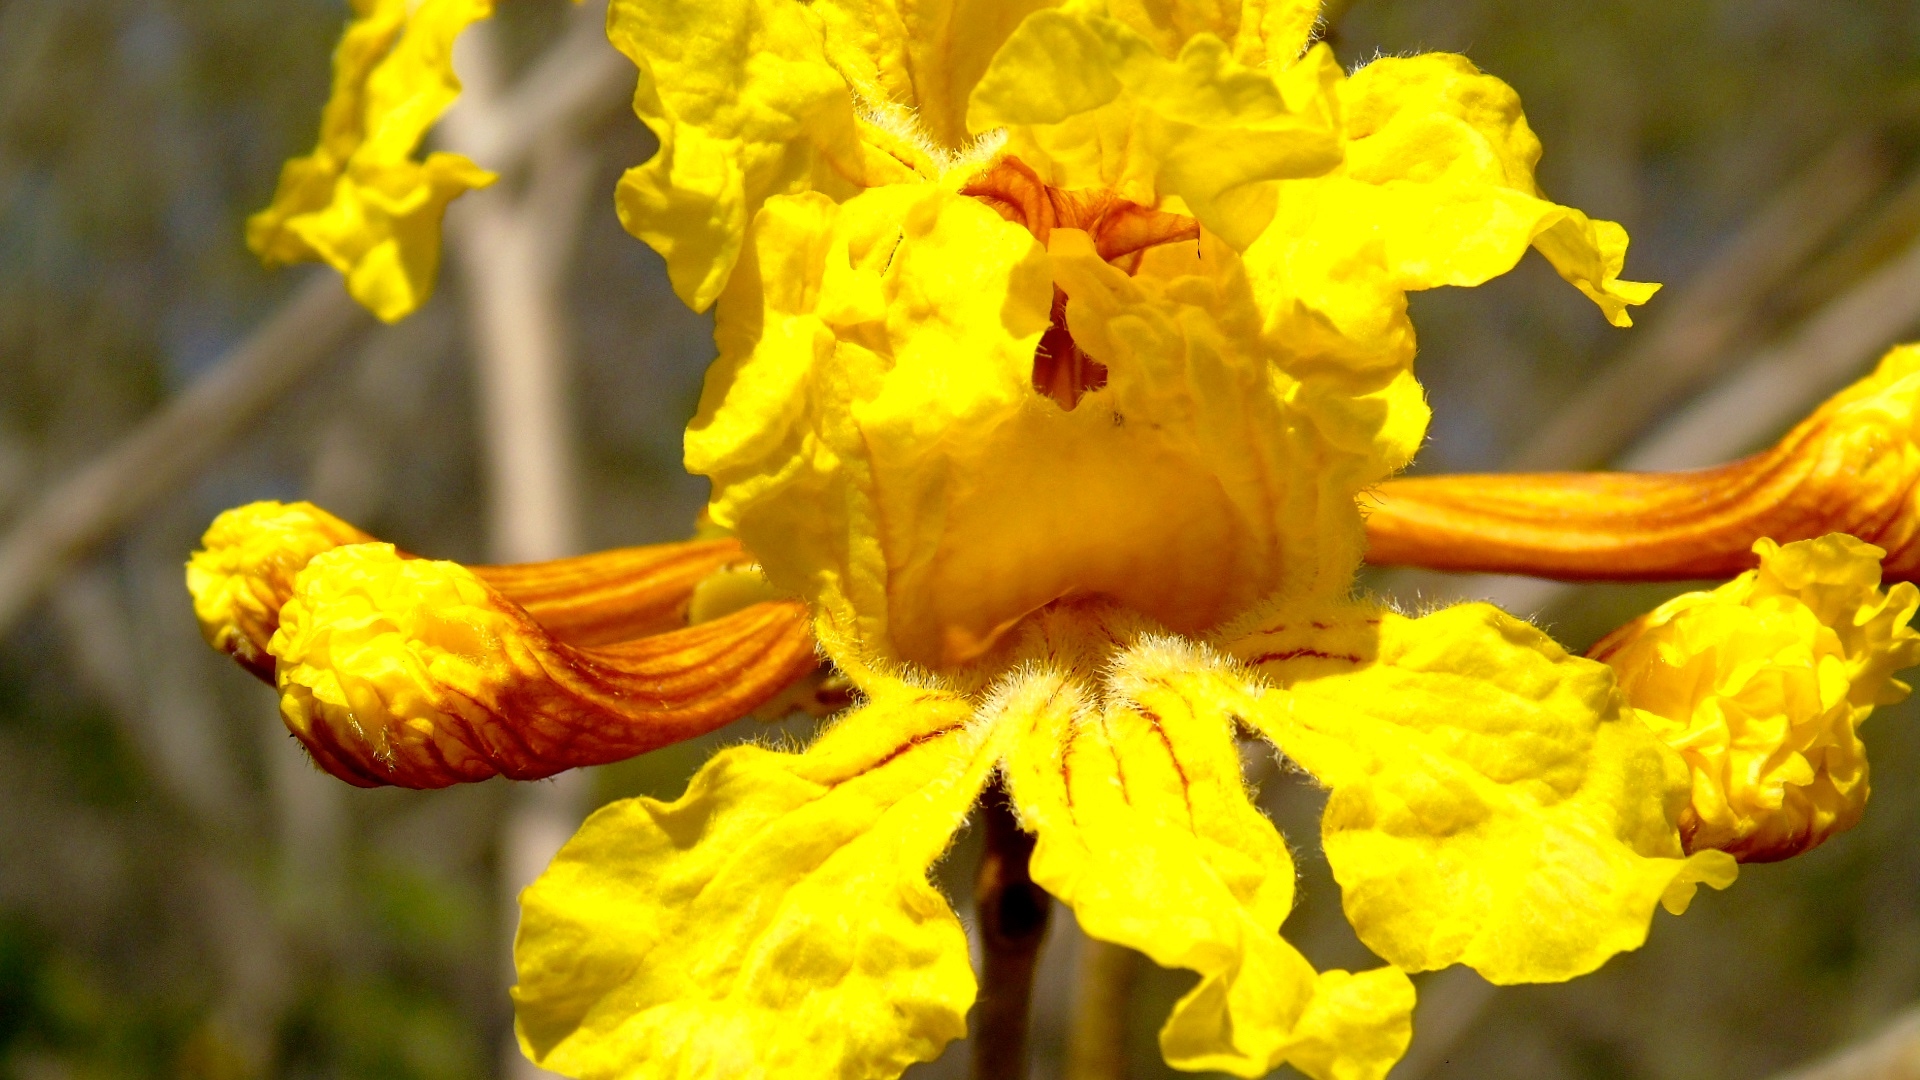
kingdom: Plantae
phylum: Tracheophyta
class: Magnoliopsida
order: Lamiales
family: Bignoniaceae
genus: Handroanthus
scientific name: Handroanthus chrysanthus
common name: Trumpet trees
